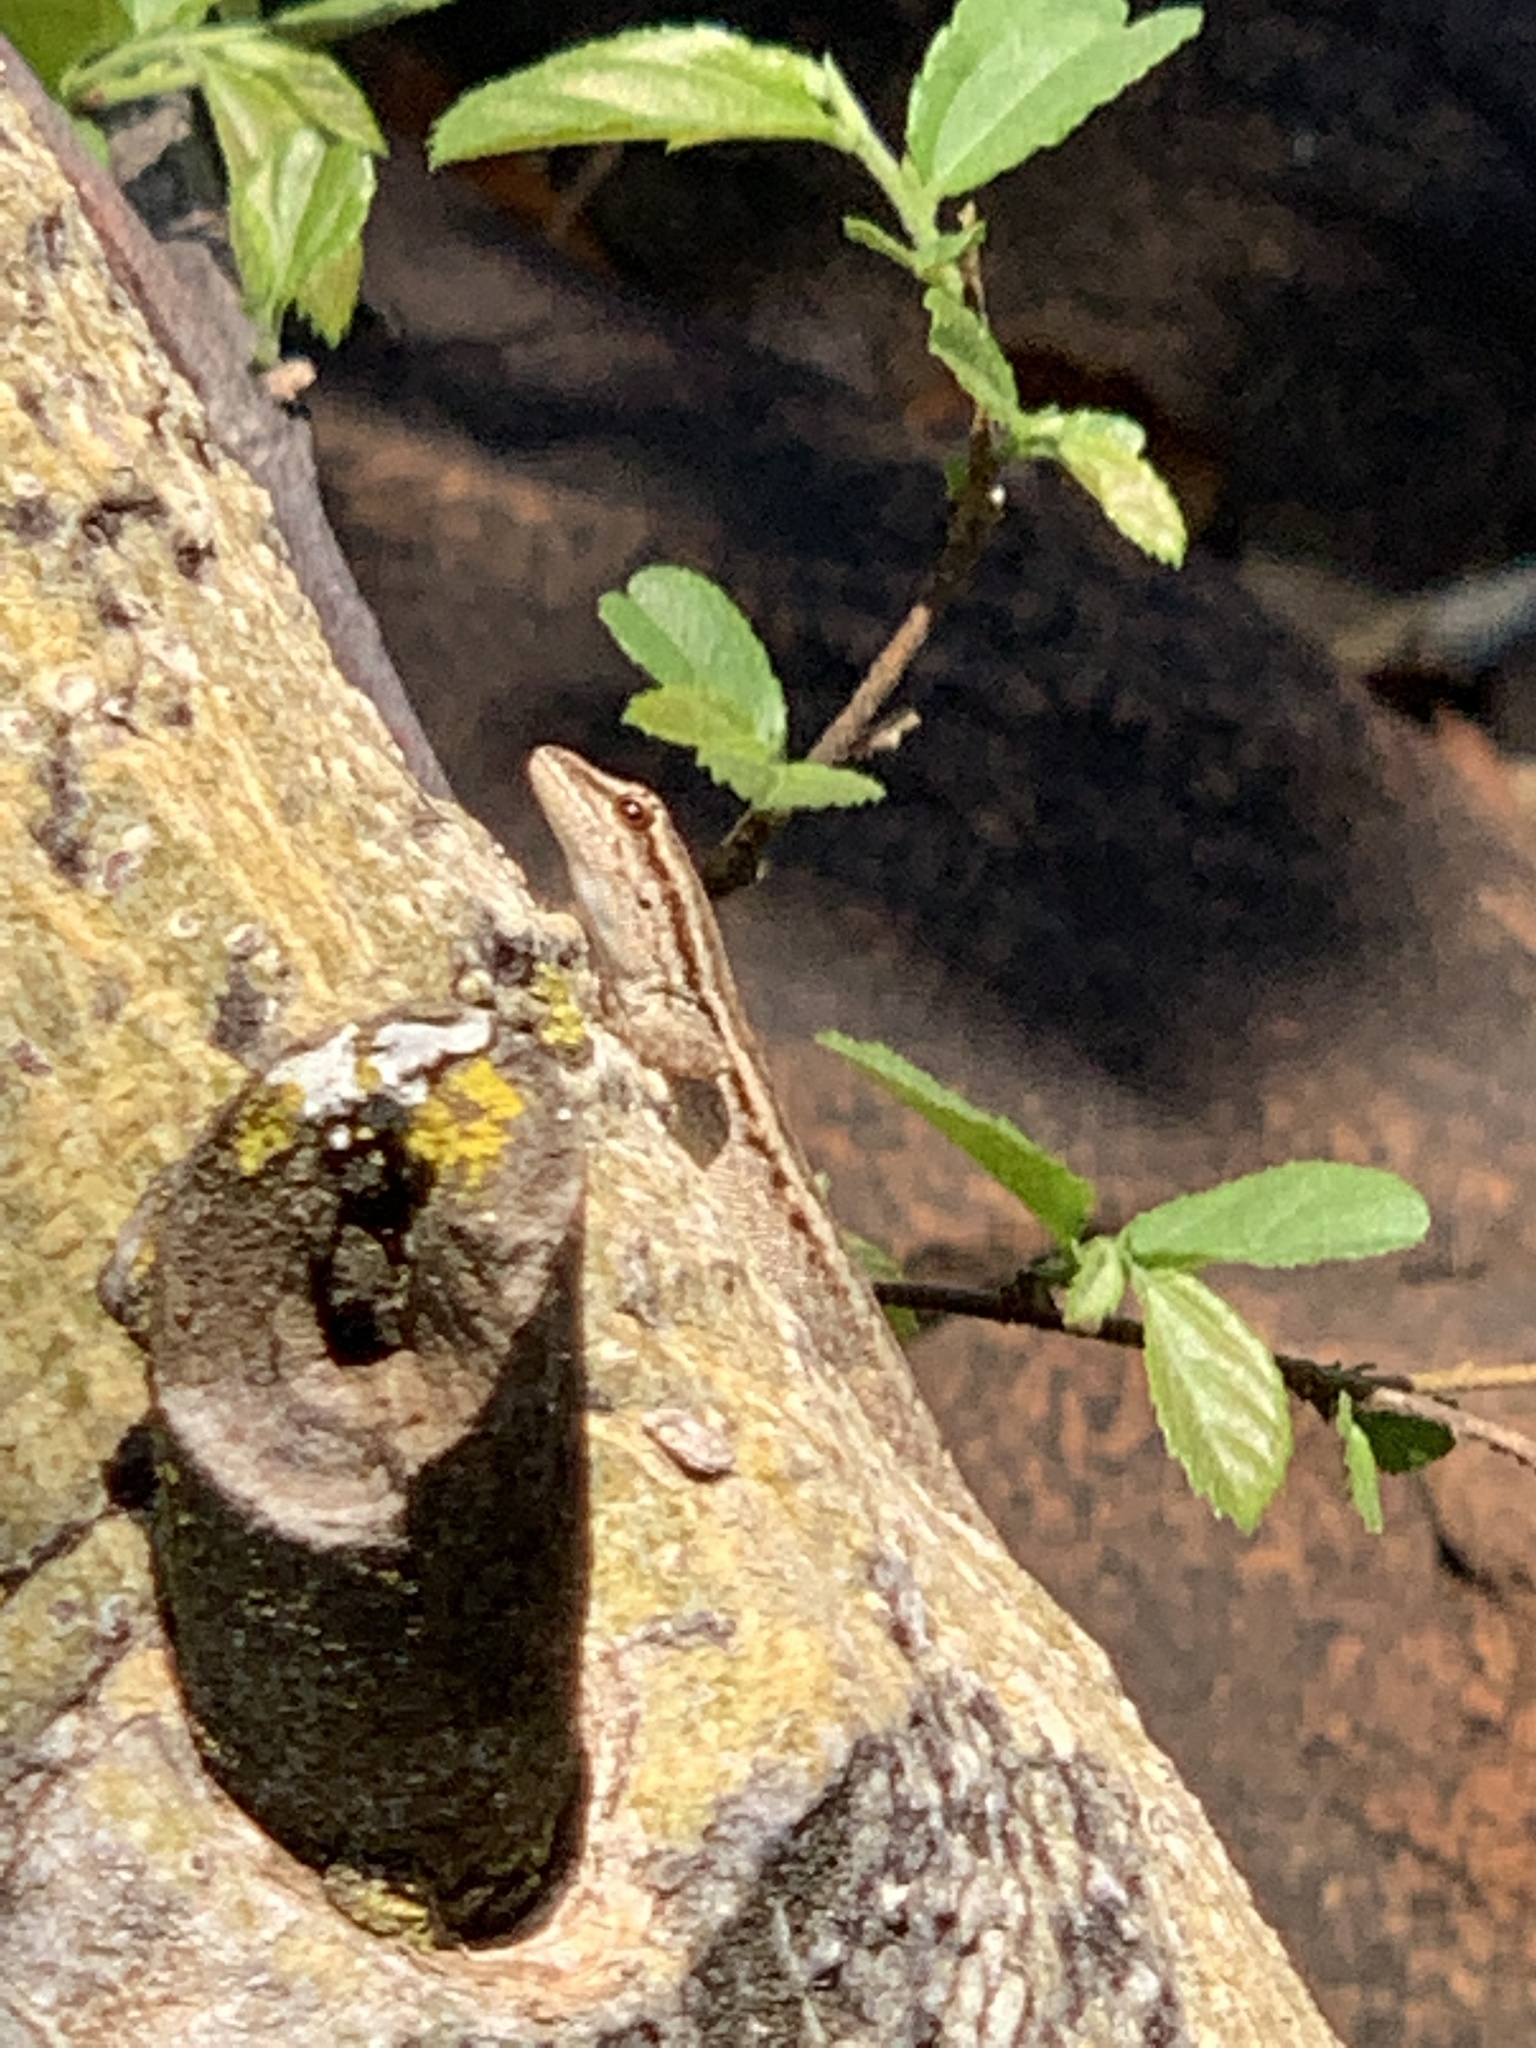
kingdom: Animalia
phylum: Chordata
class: Squamata
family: Gekkonidae
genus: Lygodactylus
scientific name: Lygodactylus capensis
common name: Cape dwarf gecko
